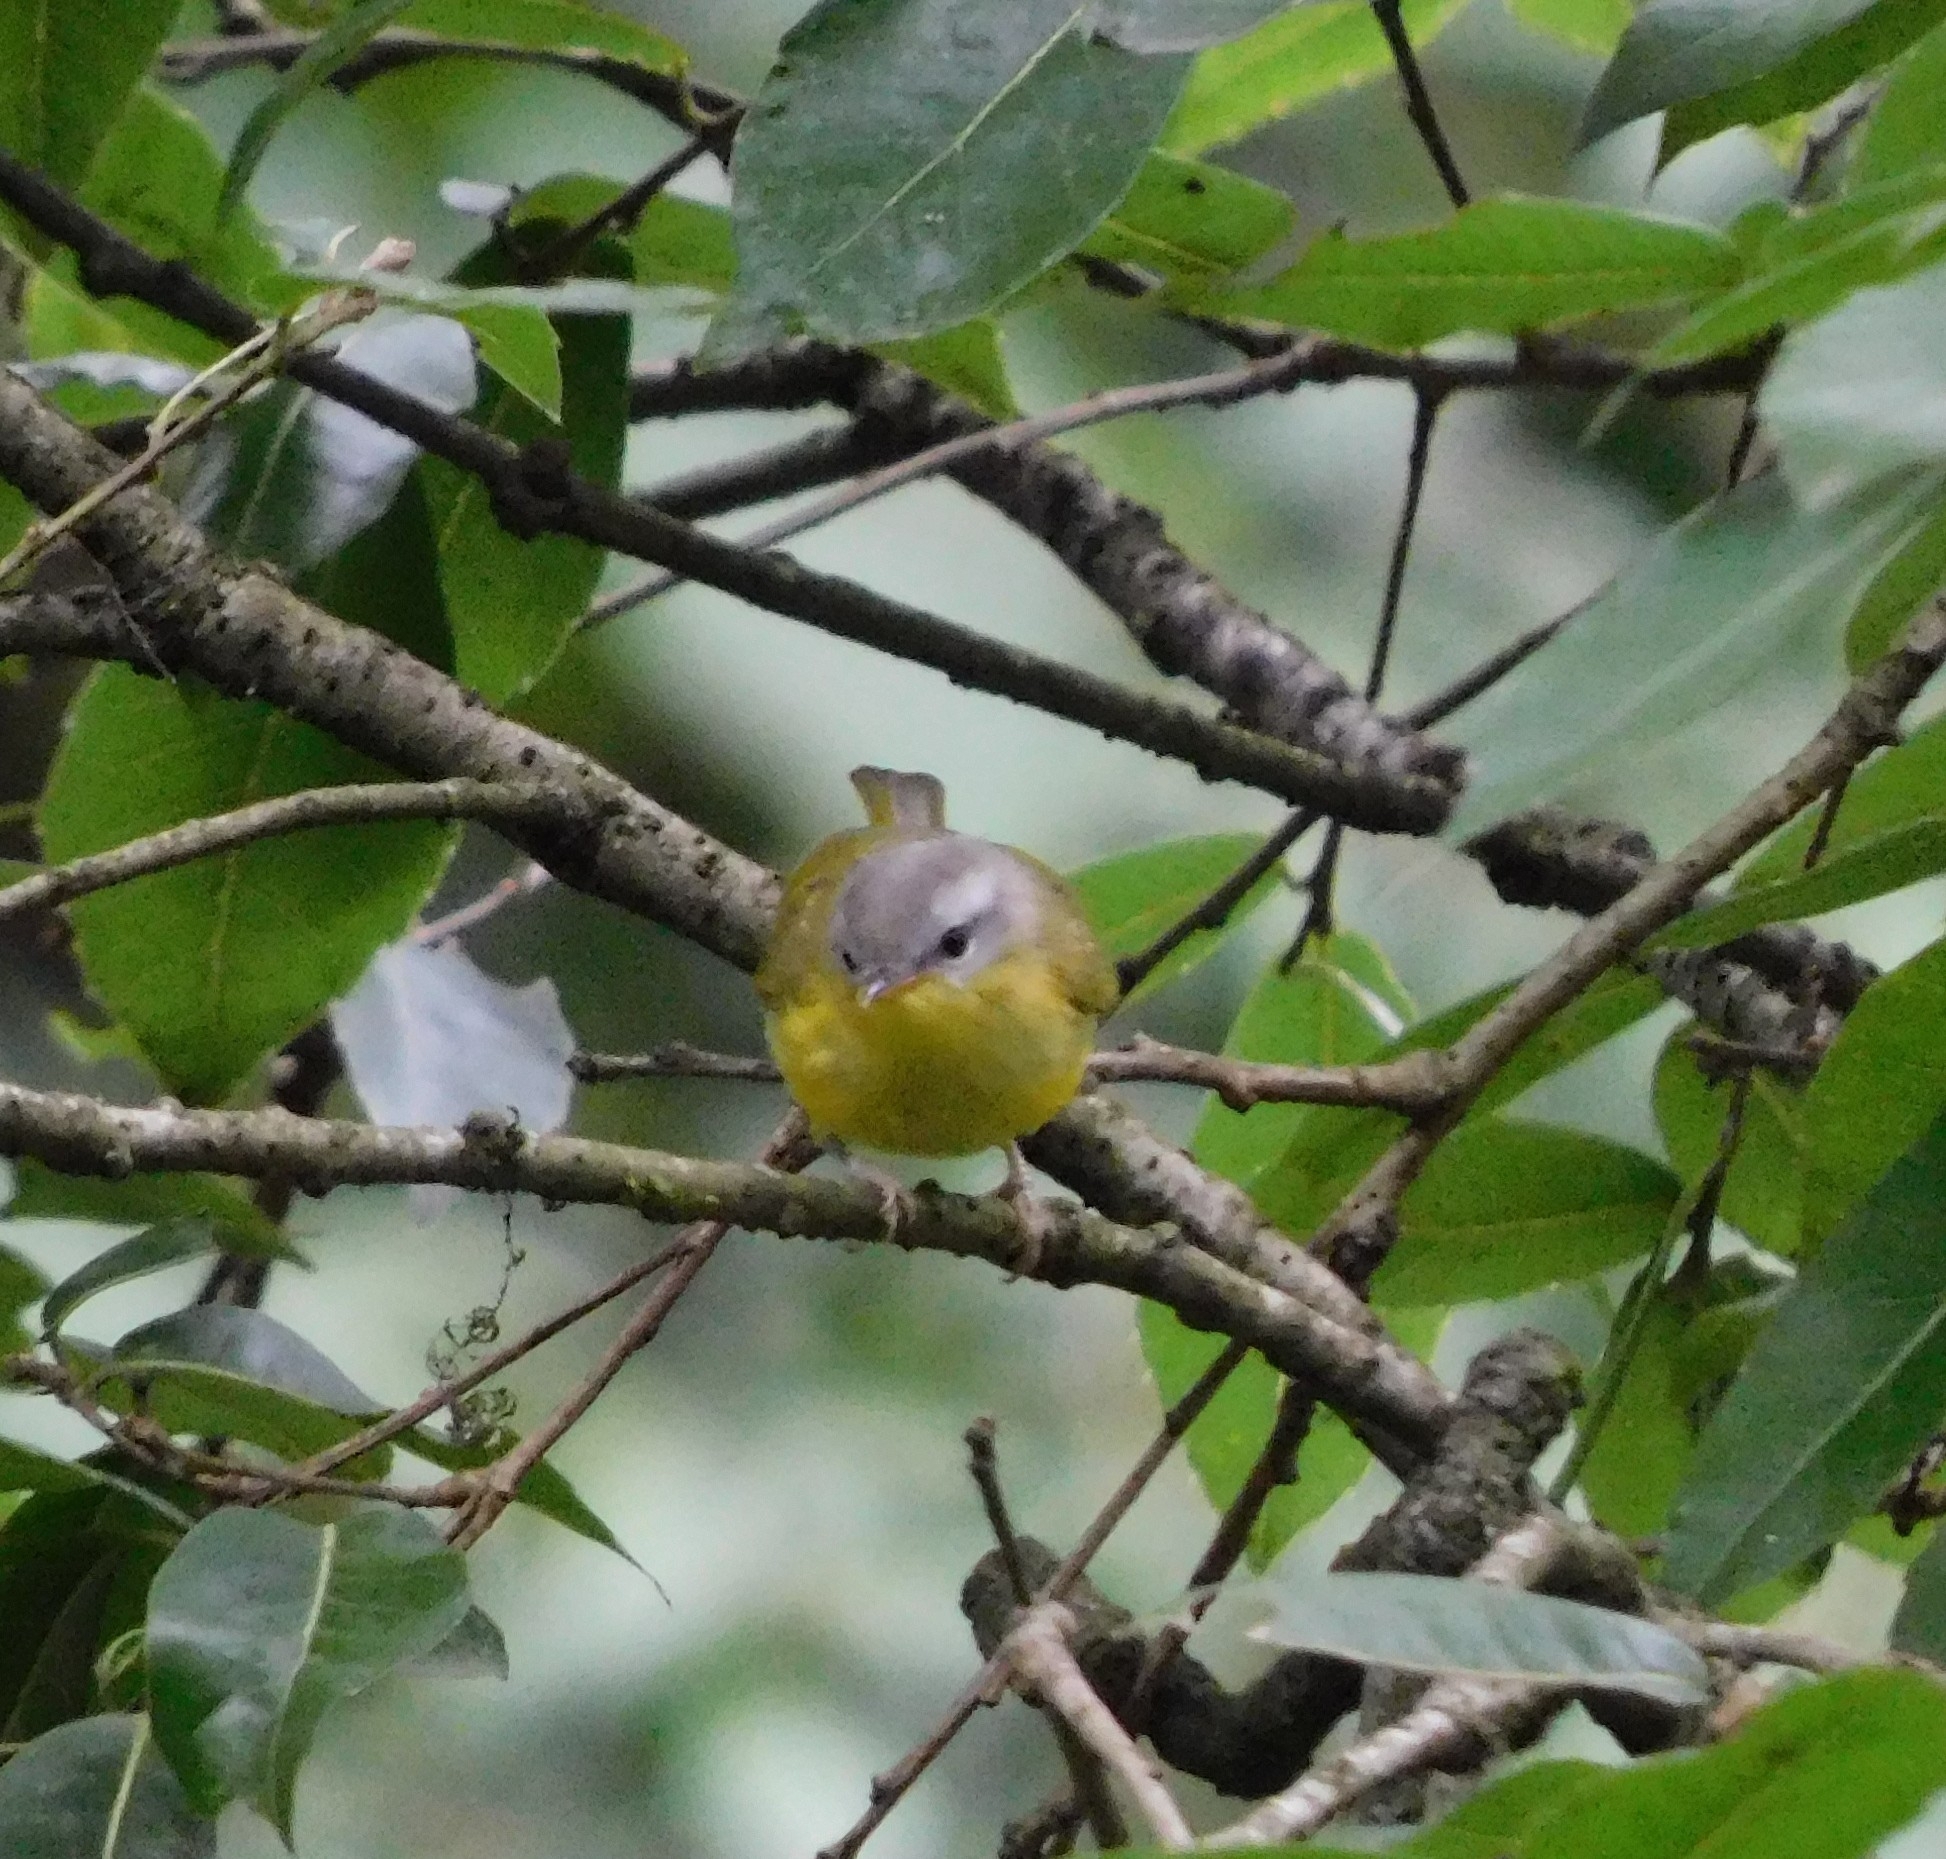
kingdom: Animalia
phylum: Chordata
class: Aves
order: Passeriformes
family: Phylloscopidae
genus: Phylloscopus
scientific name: Phylloscopus xanthoschistos
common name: Grey-hooded warbler
